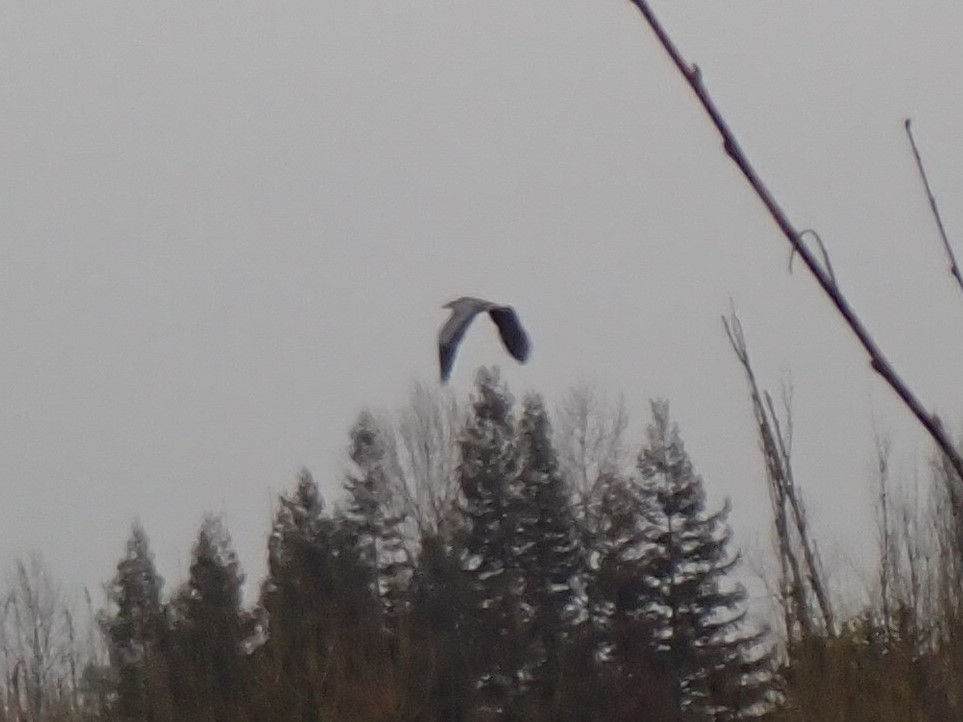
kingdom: Animalia
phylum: Chordata
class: Aves
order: Pelecaniformes
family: Ardeidae
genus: Ardea
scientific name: Ardea herodias
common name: Great blue heron
